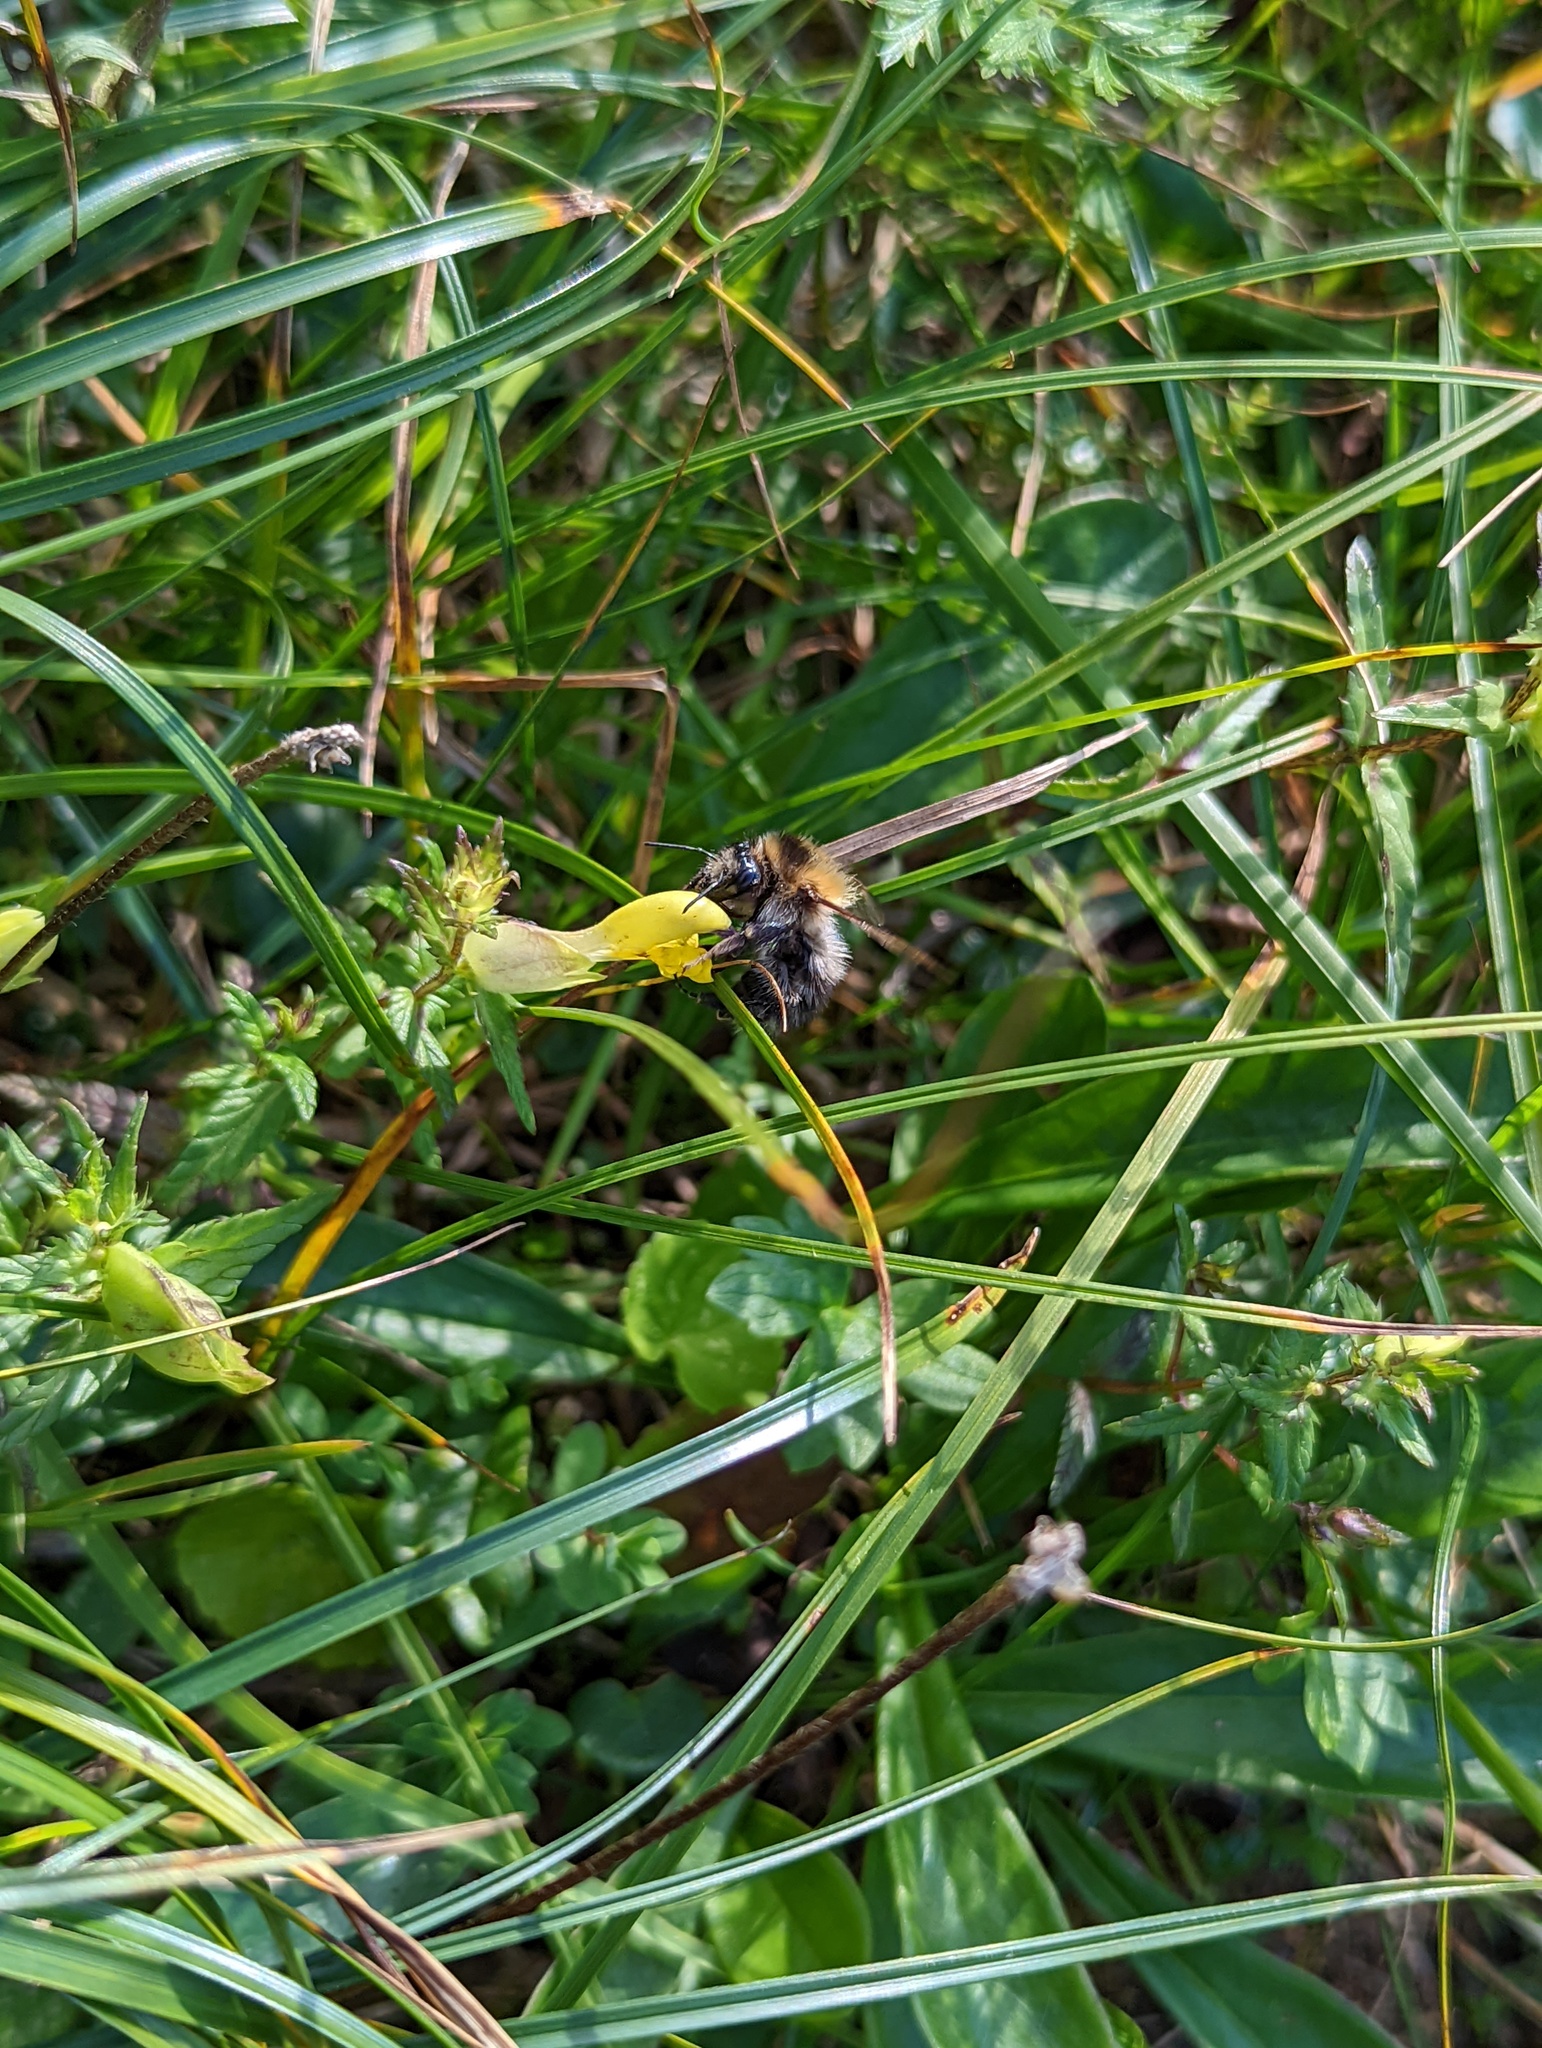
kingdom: Animalia
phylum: Arthropoda
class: Insecta
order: Hymenoptera
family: Apidae
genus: Bombus
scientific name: Bombus pascuorum
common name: Common carder bee
